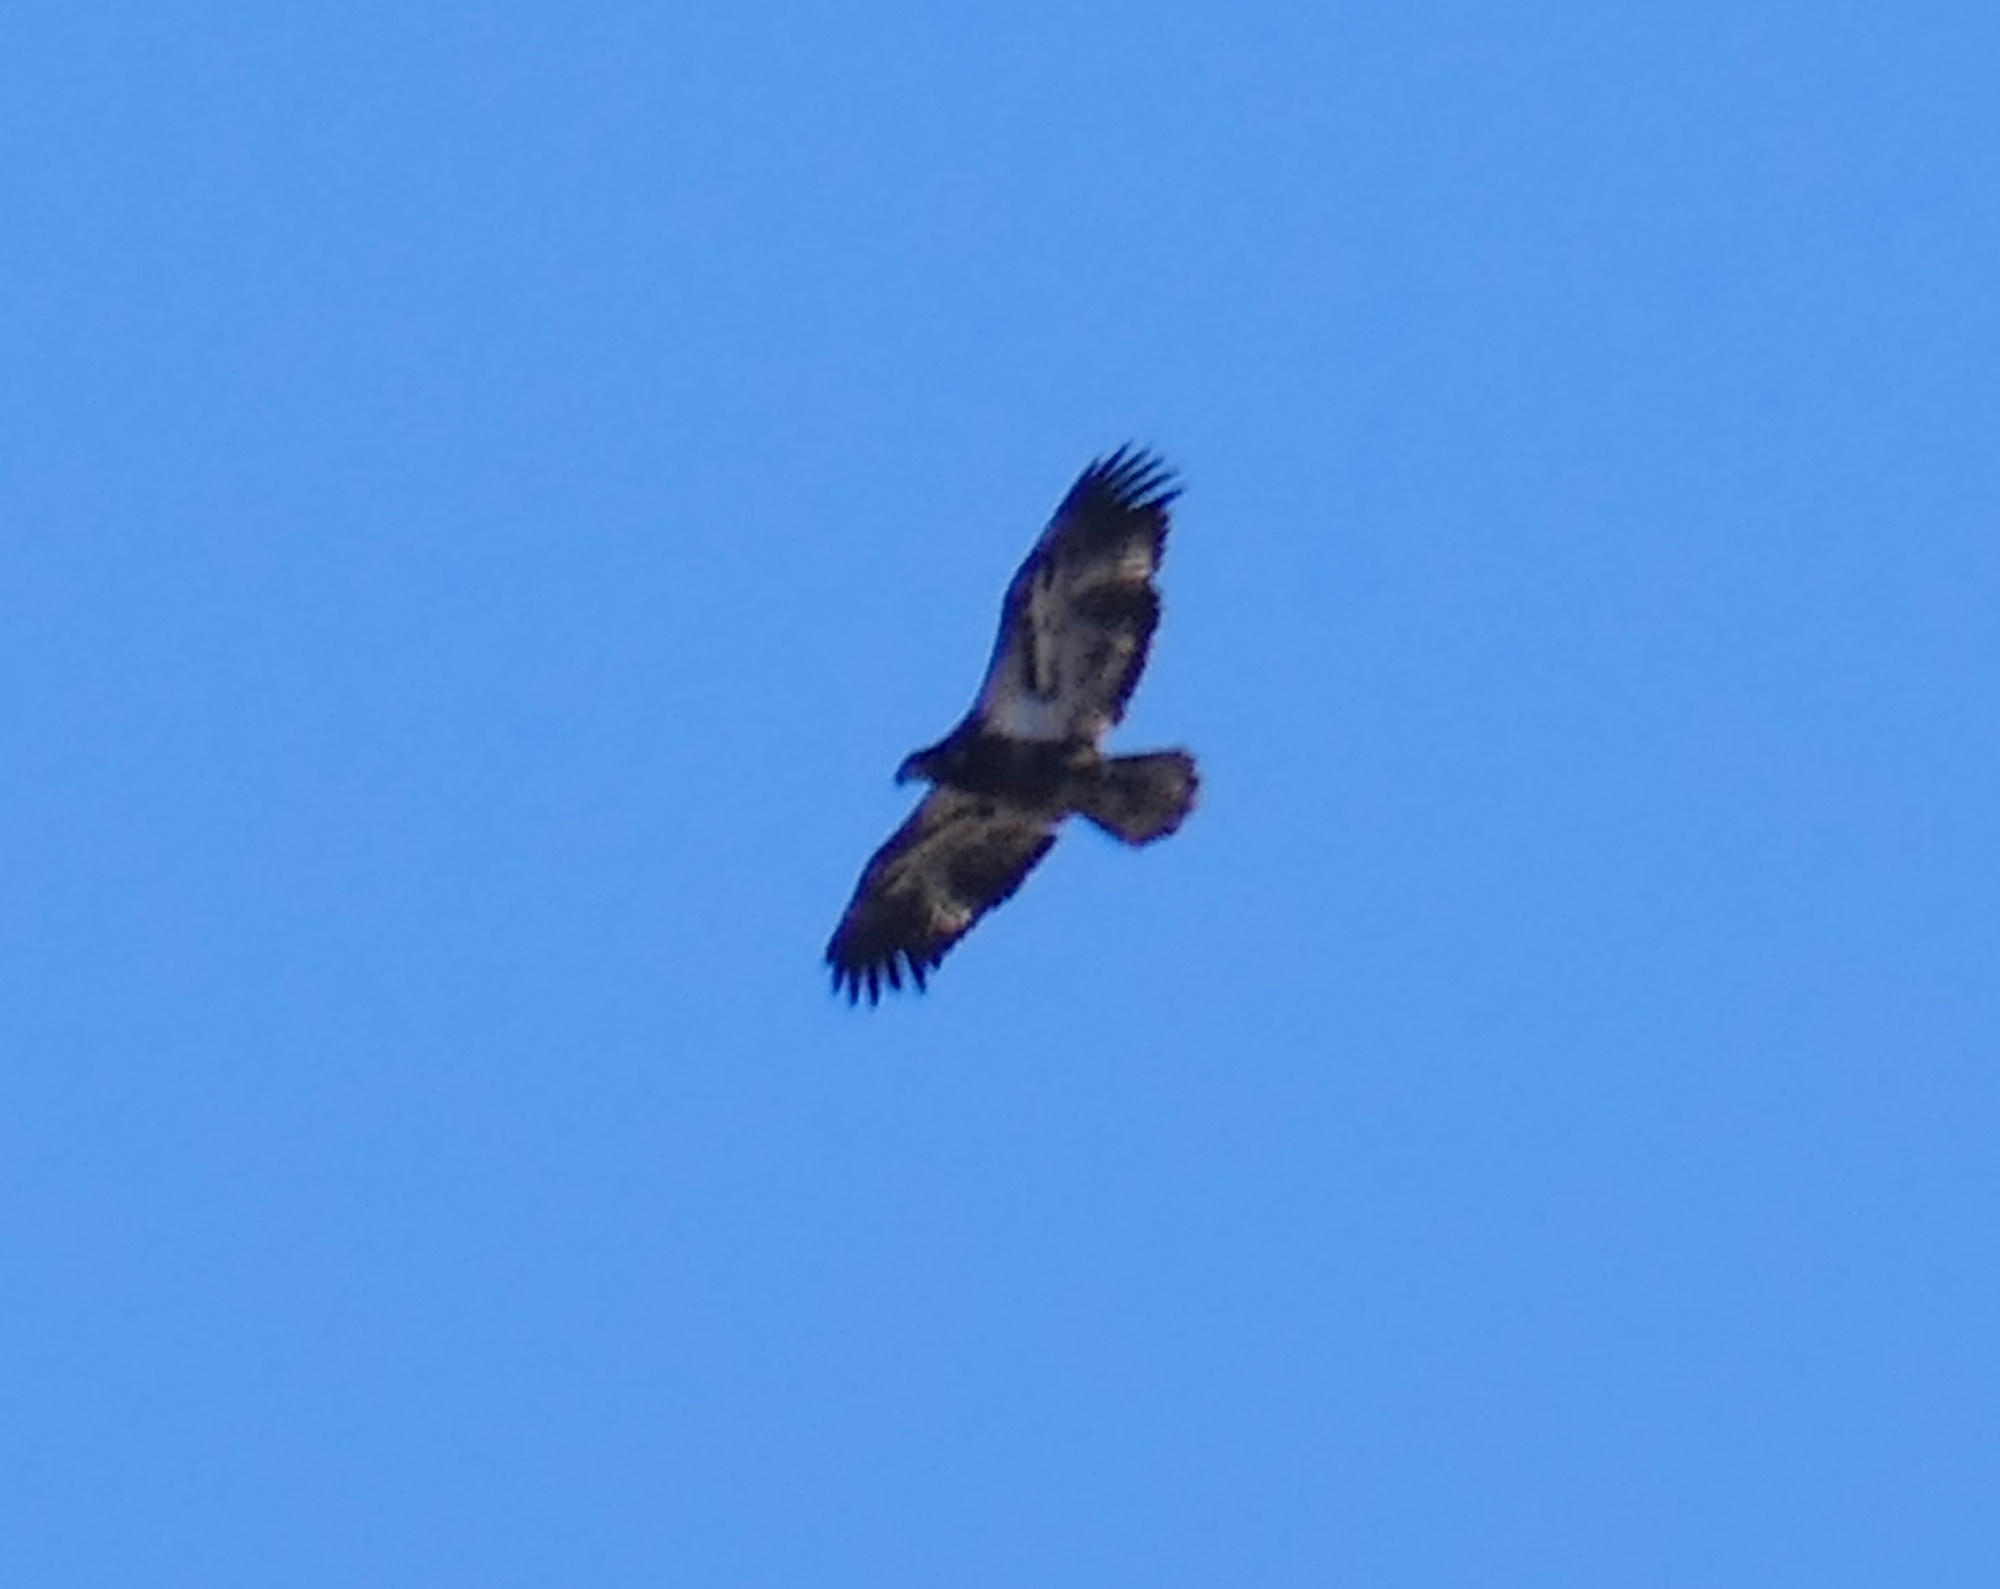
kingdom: Animalia
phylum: Chordata
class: Aves
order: Accipitriformes
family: Accipitridae
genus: Haliaeetus
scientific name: Haliaeetus leucocephalus
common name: Bald eagle
